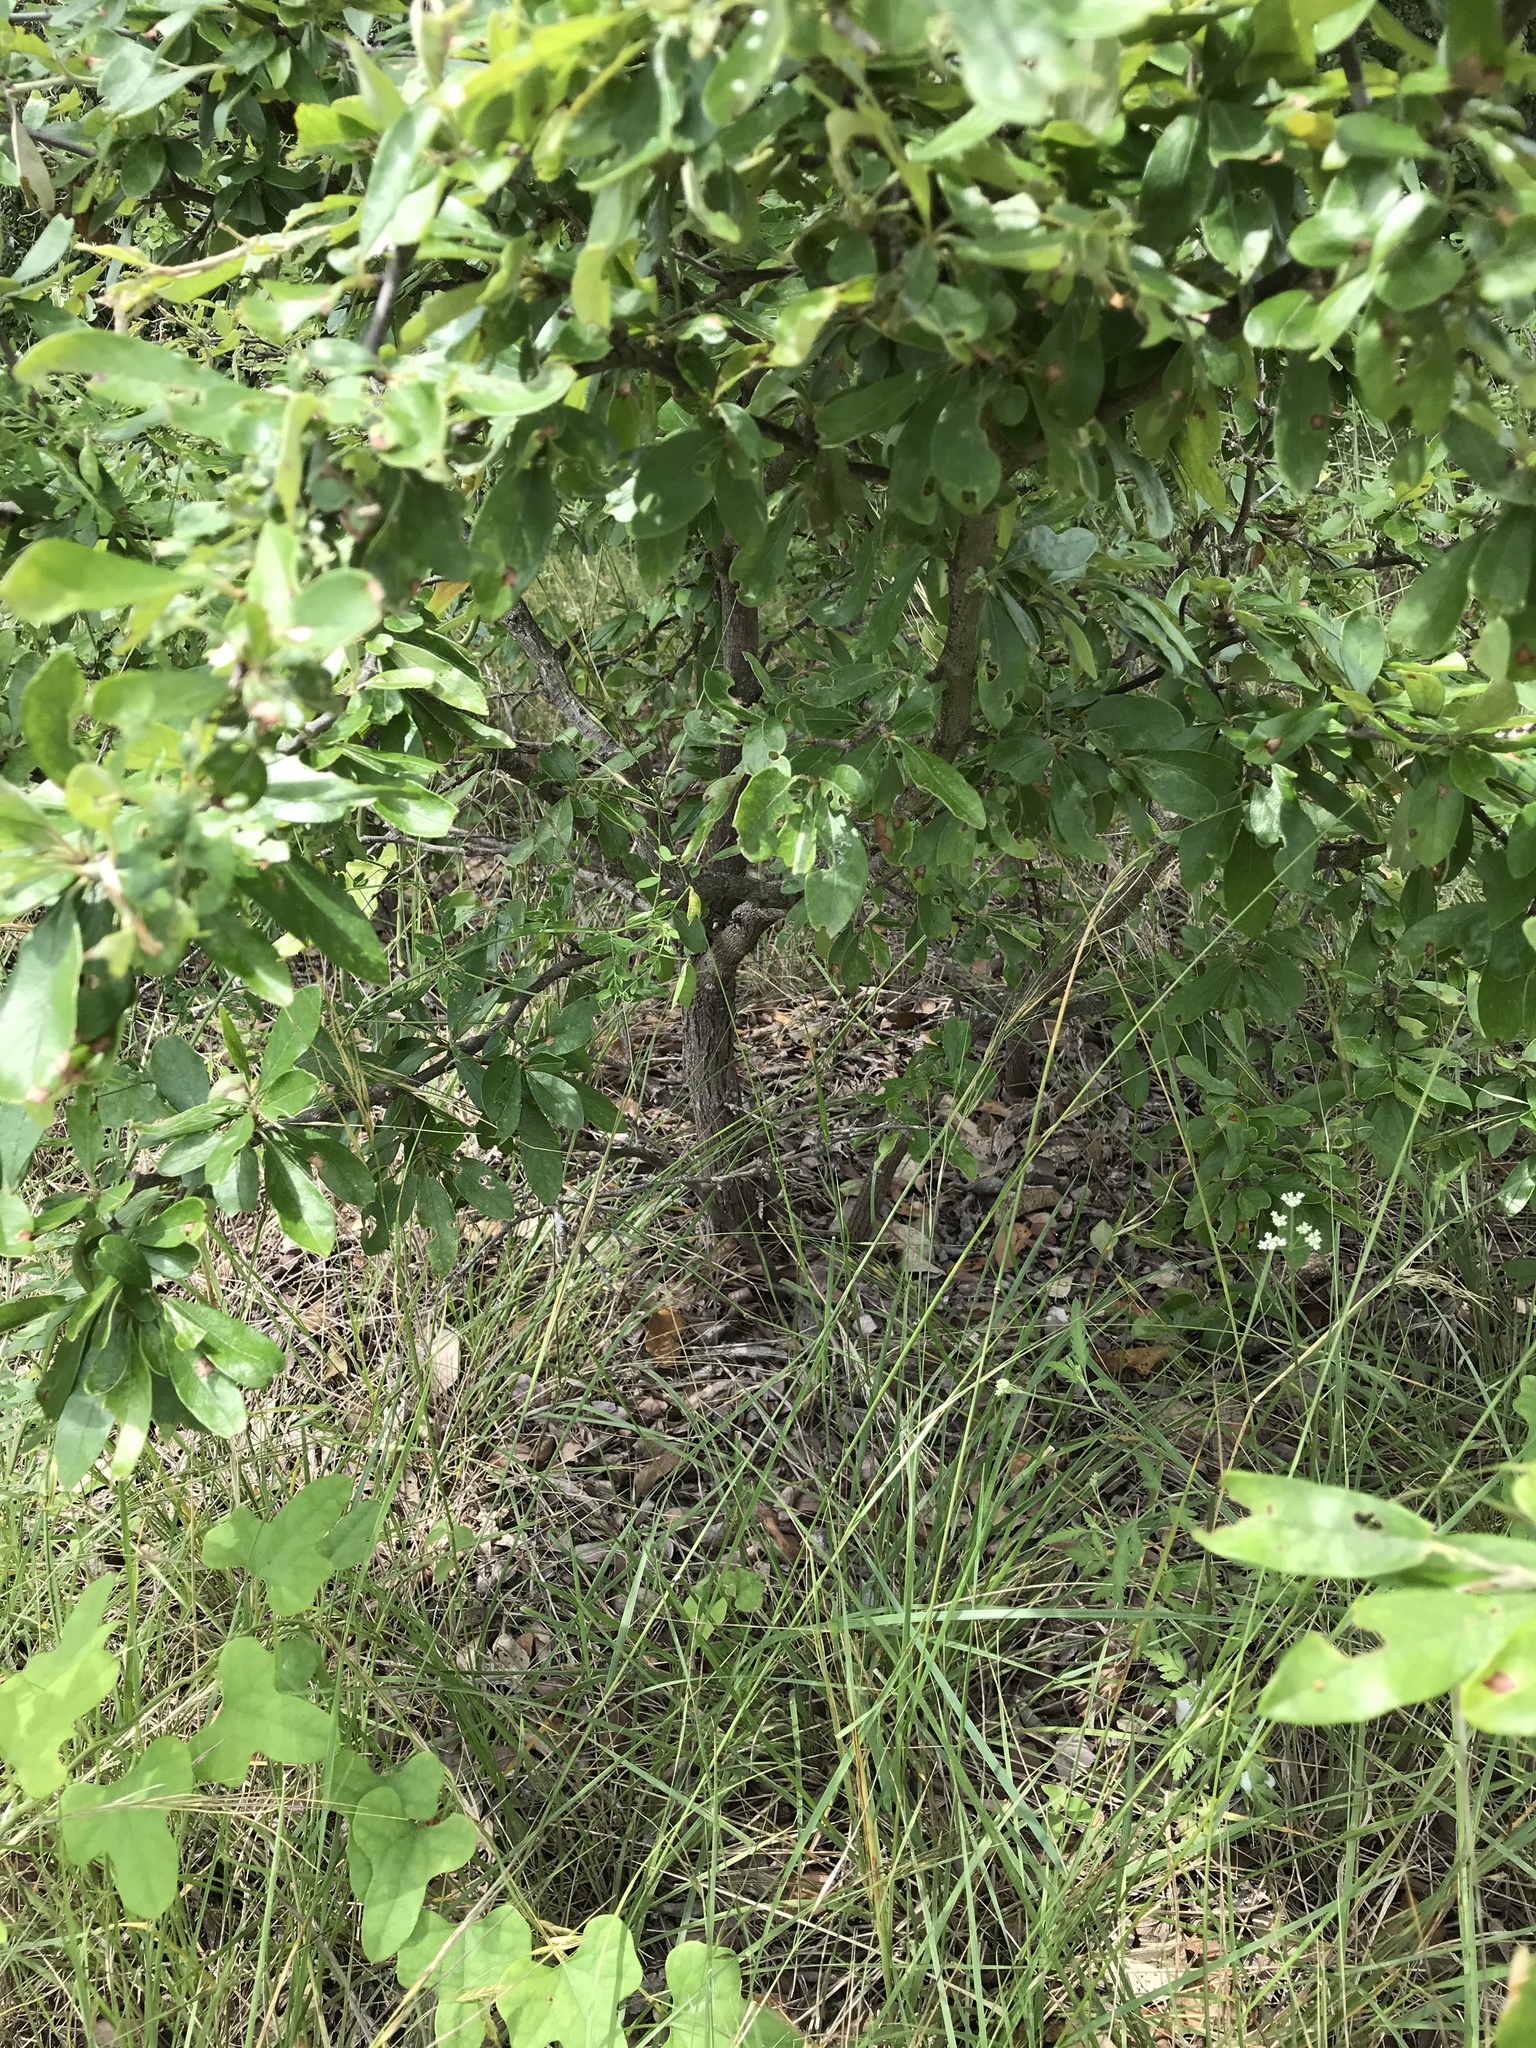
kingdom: Plantae
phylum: Tracheophyta
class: Magnoliopsida
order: Ericales
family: Sapotaceae
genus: Sideroxylon
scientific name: Sideroxylon lanuginosum
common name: Chittamwood
